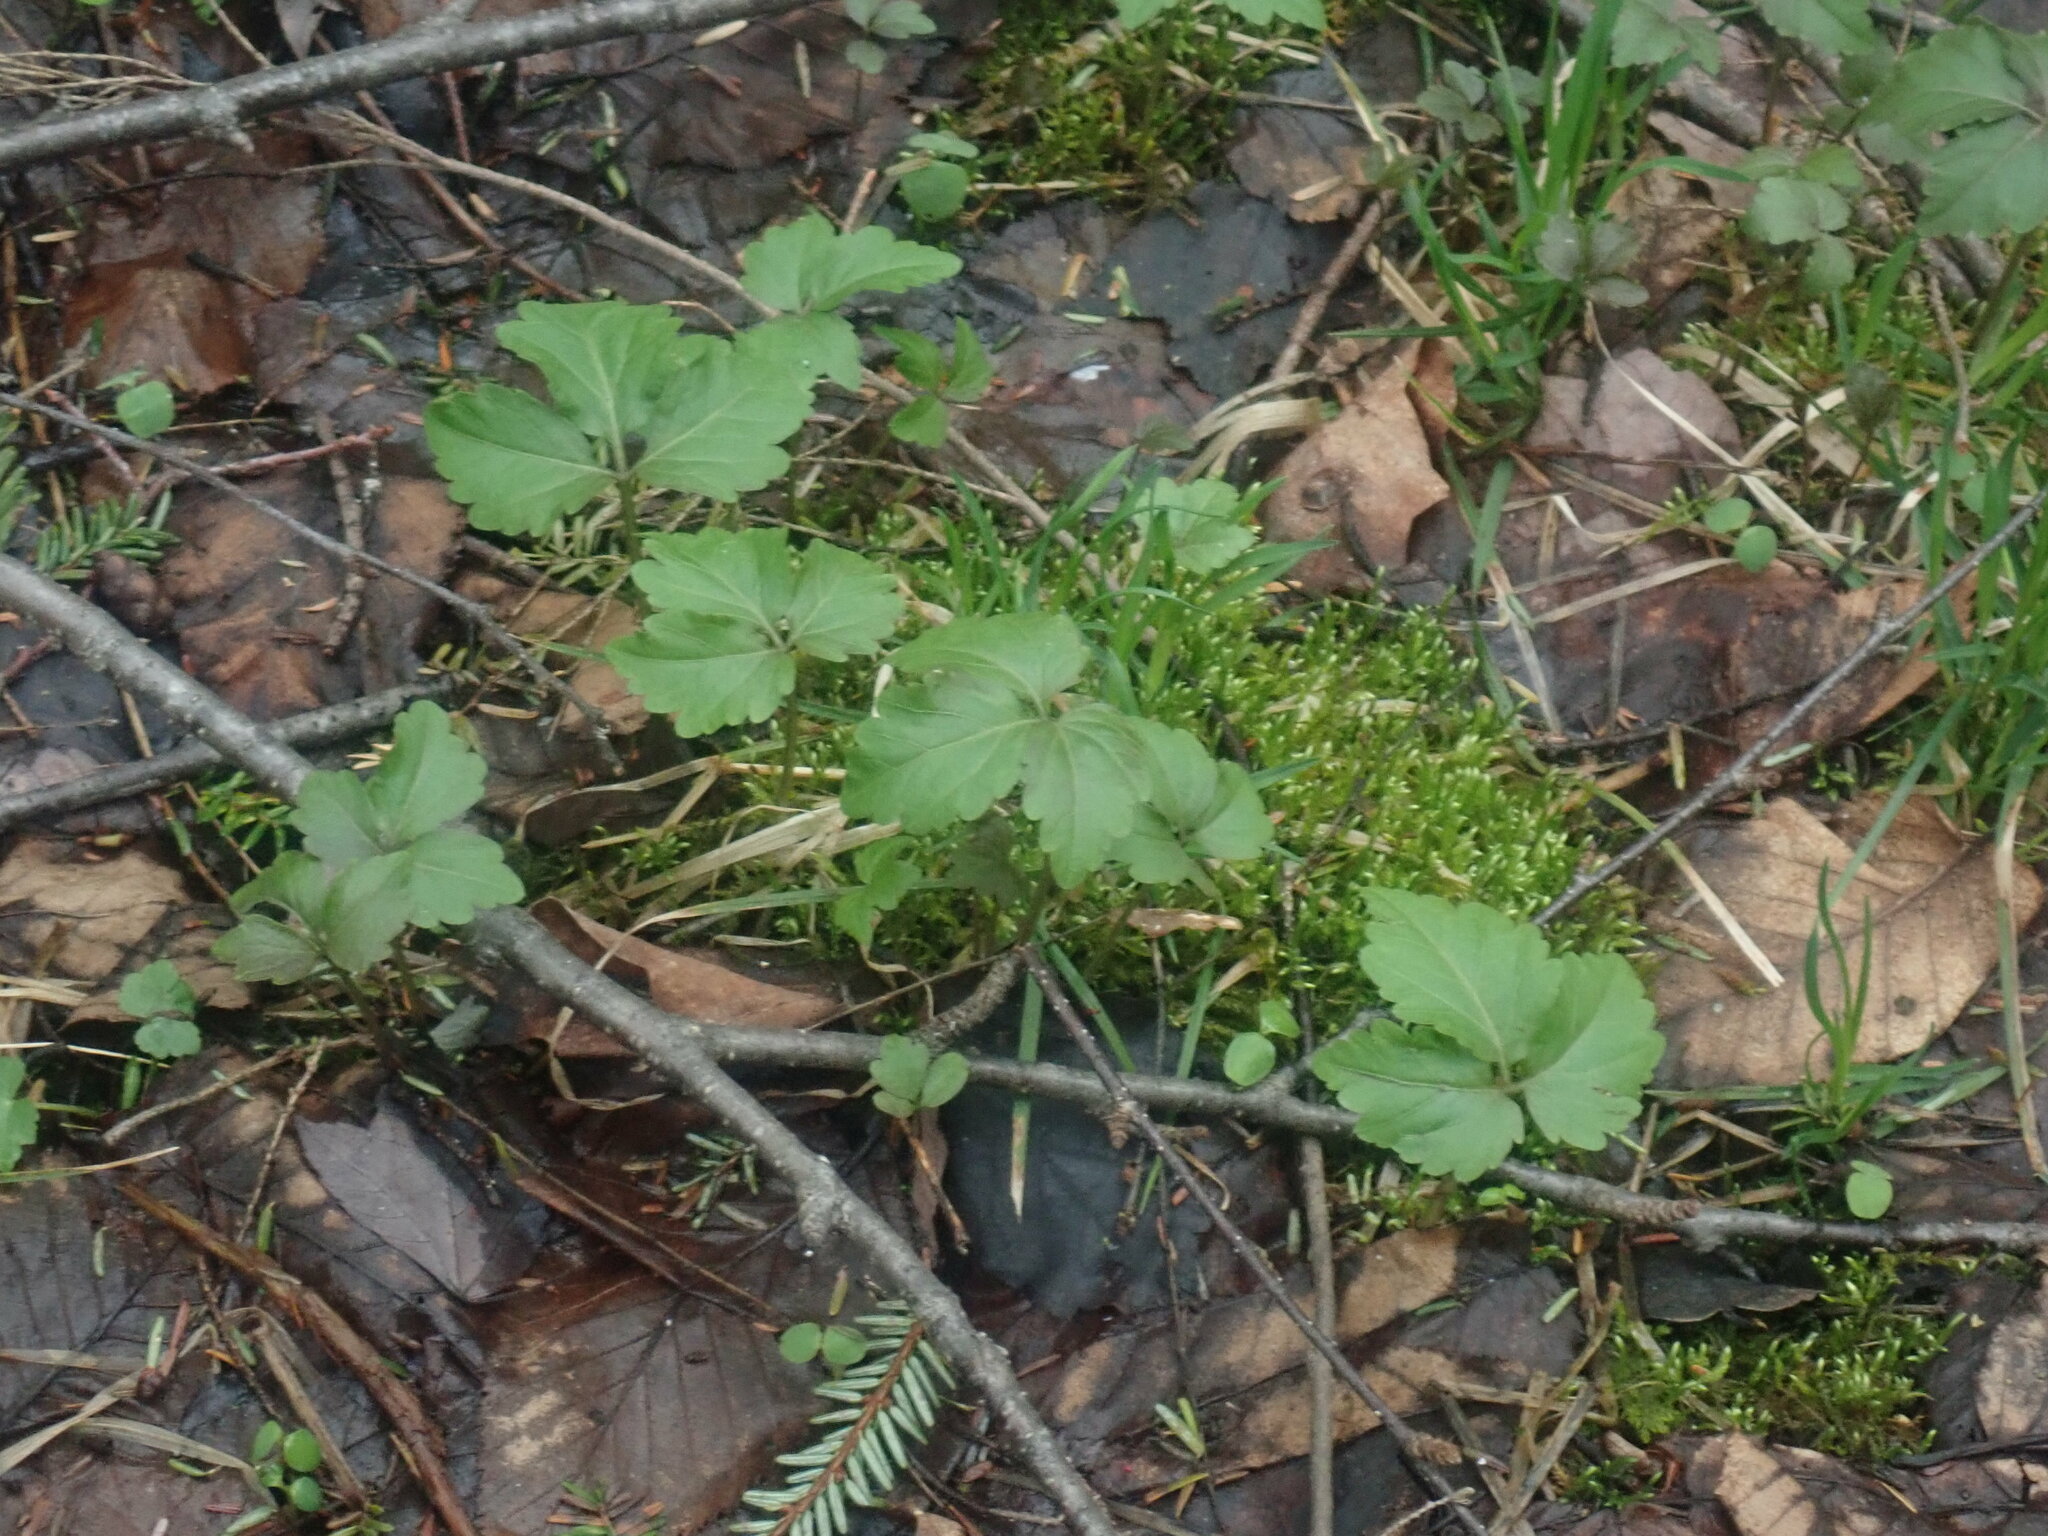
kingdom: Plantae
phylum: Tracheophyta
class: Magnoliopsida
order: Brassicales
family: Brassicaceae
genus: Cardamine
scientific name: Cardamine diphylla
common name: Broad-leaved toothwort
